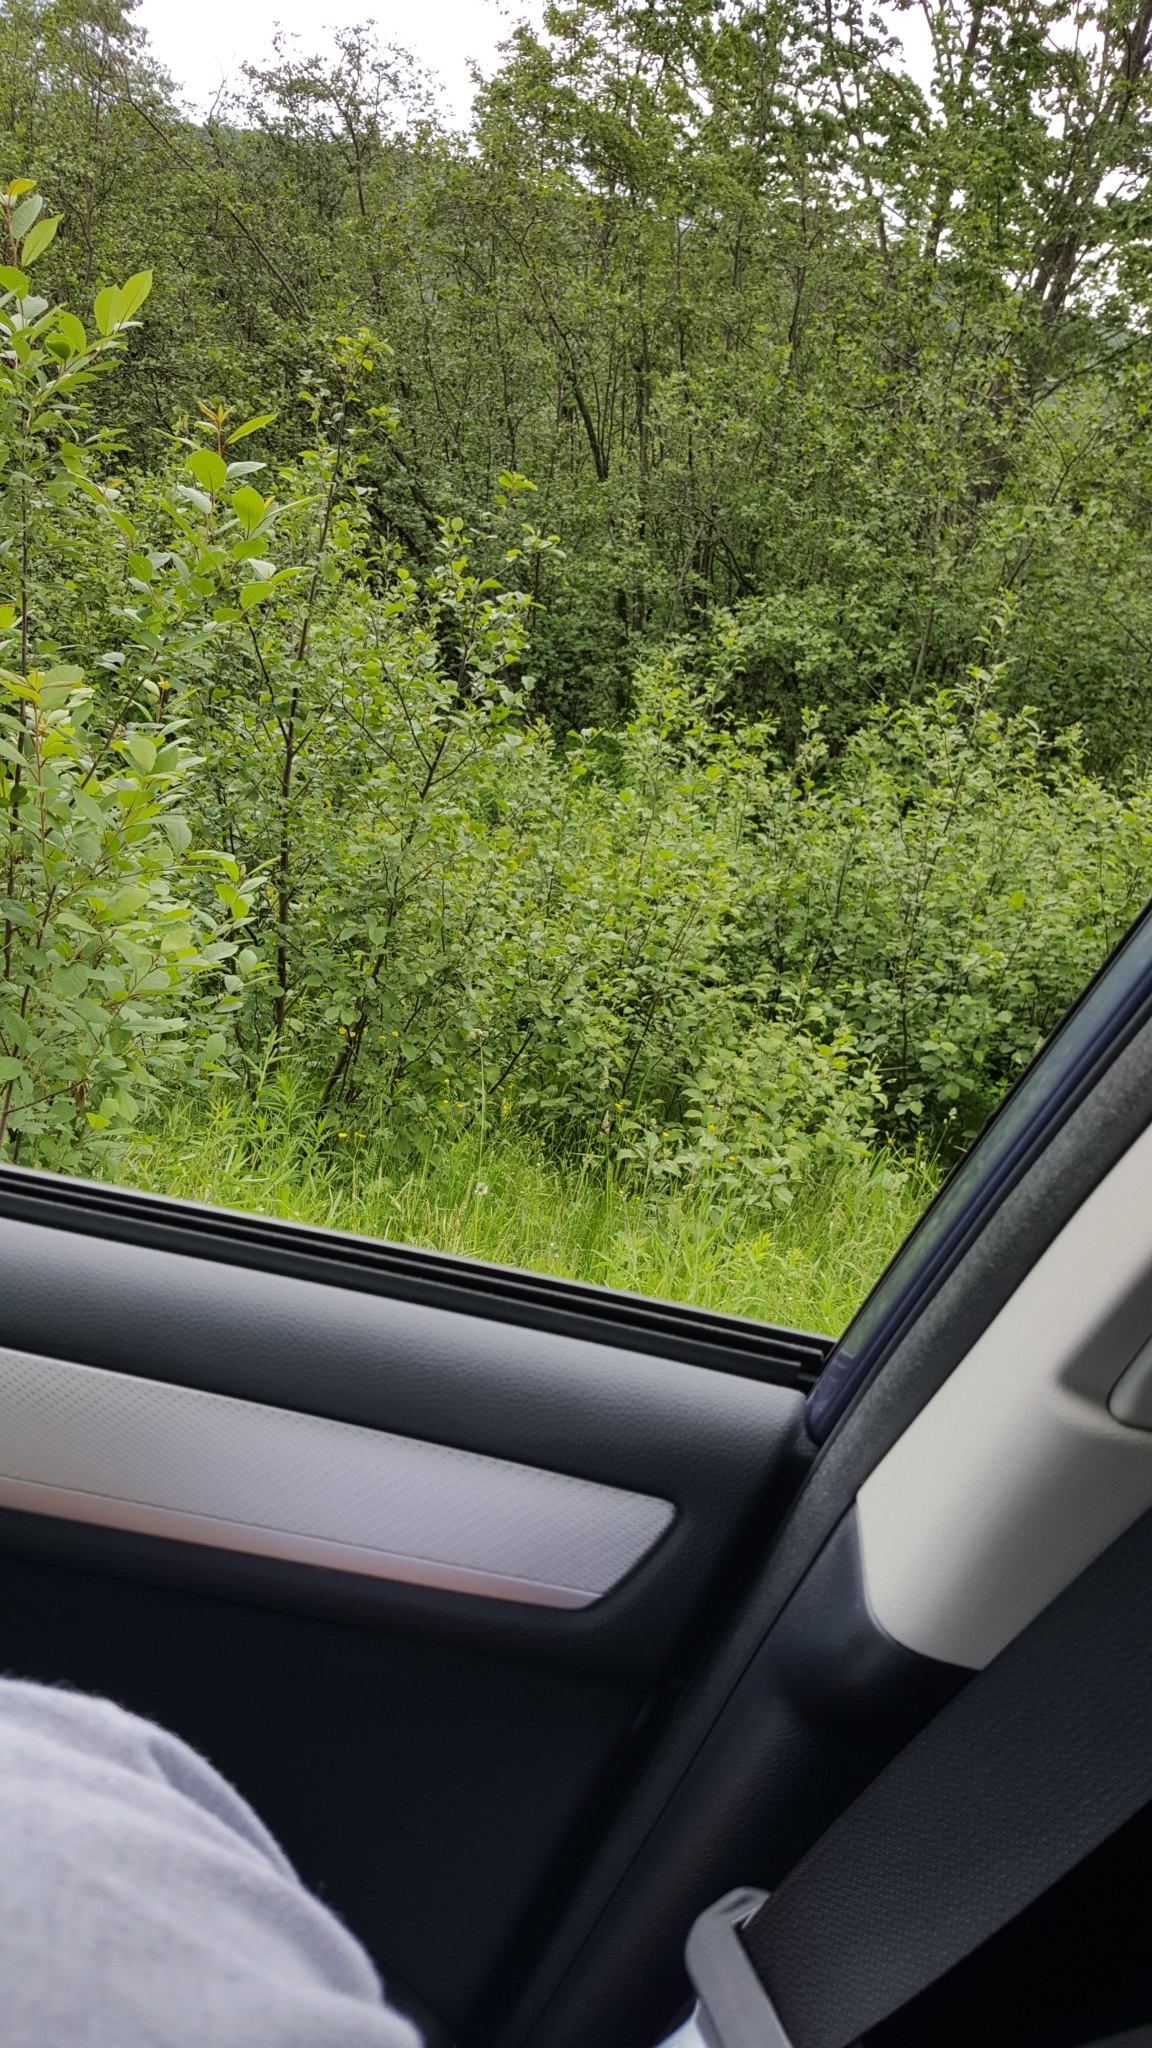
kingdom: Plantae
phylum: Tracheophyta
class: Magnoliopsida
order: Fagales
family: Betulaceae
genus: Alnus
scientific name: Alnus incana
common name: Grey alder
